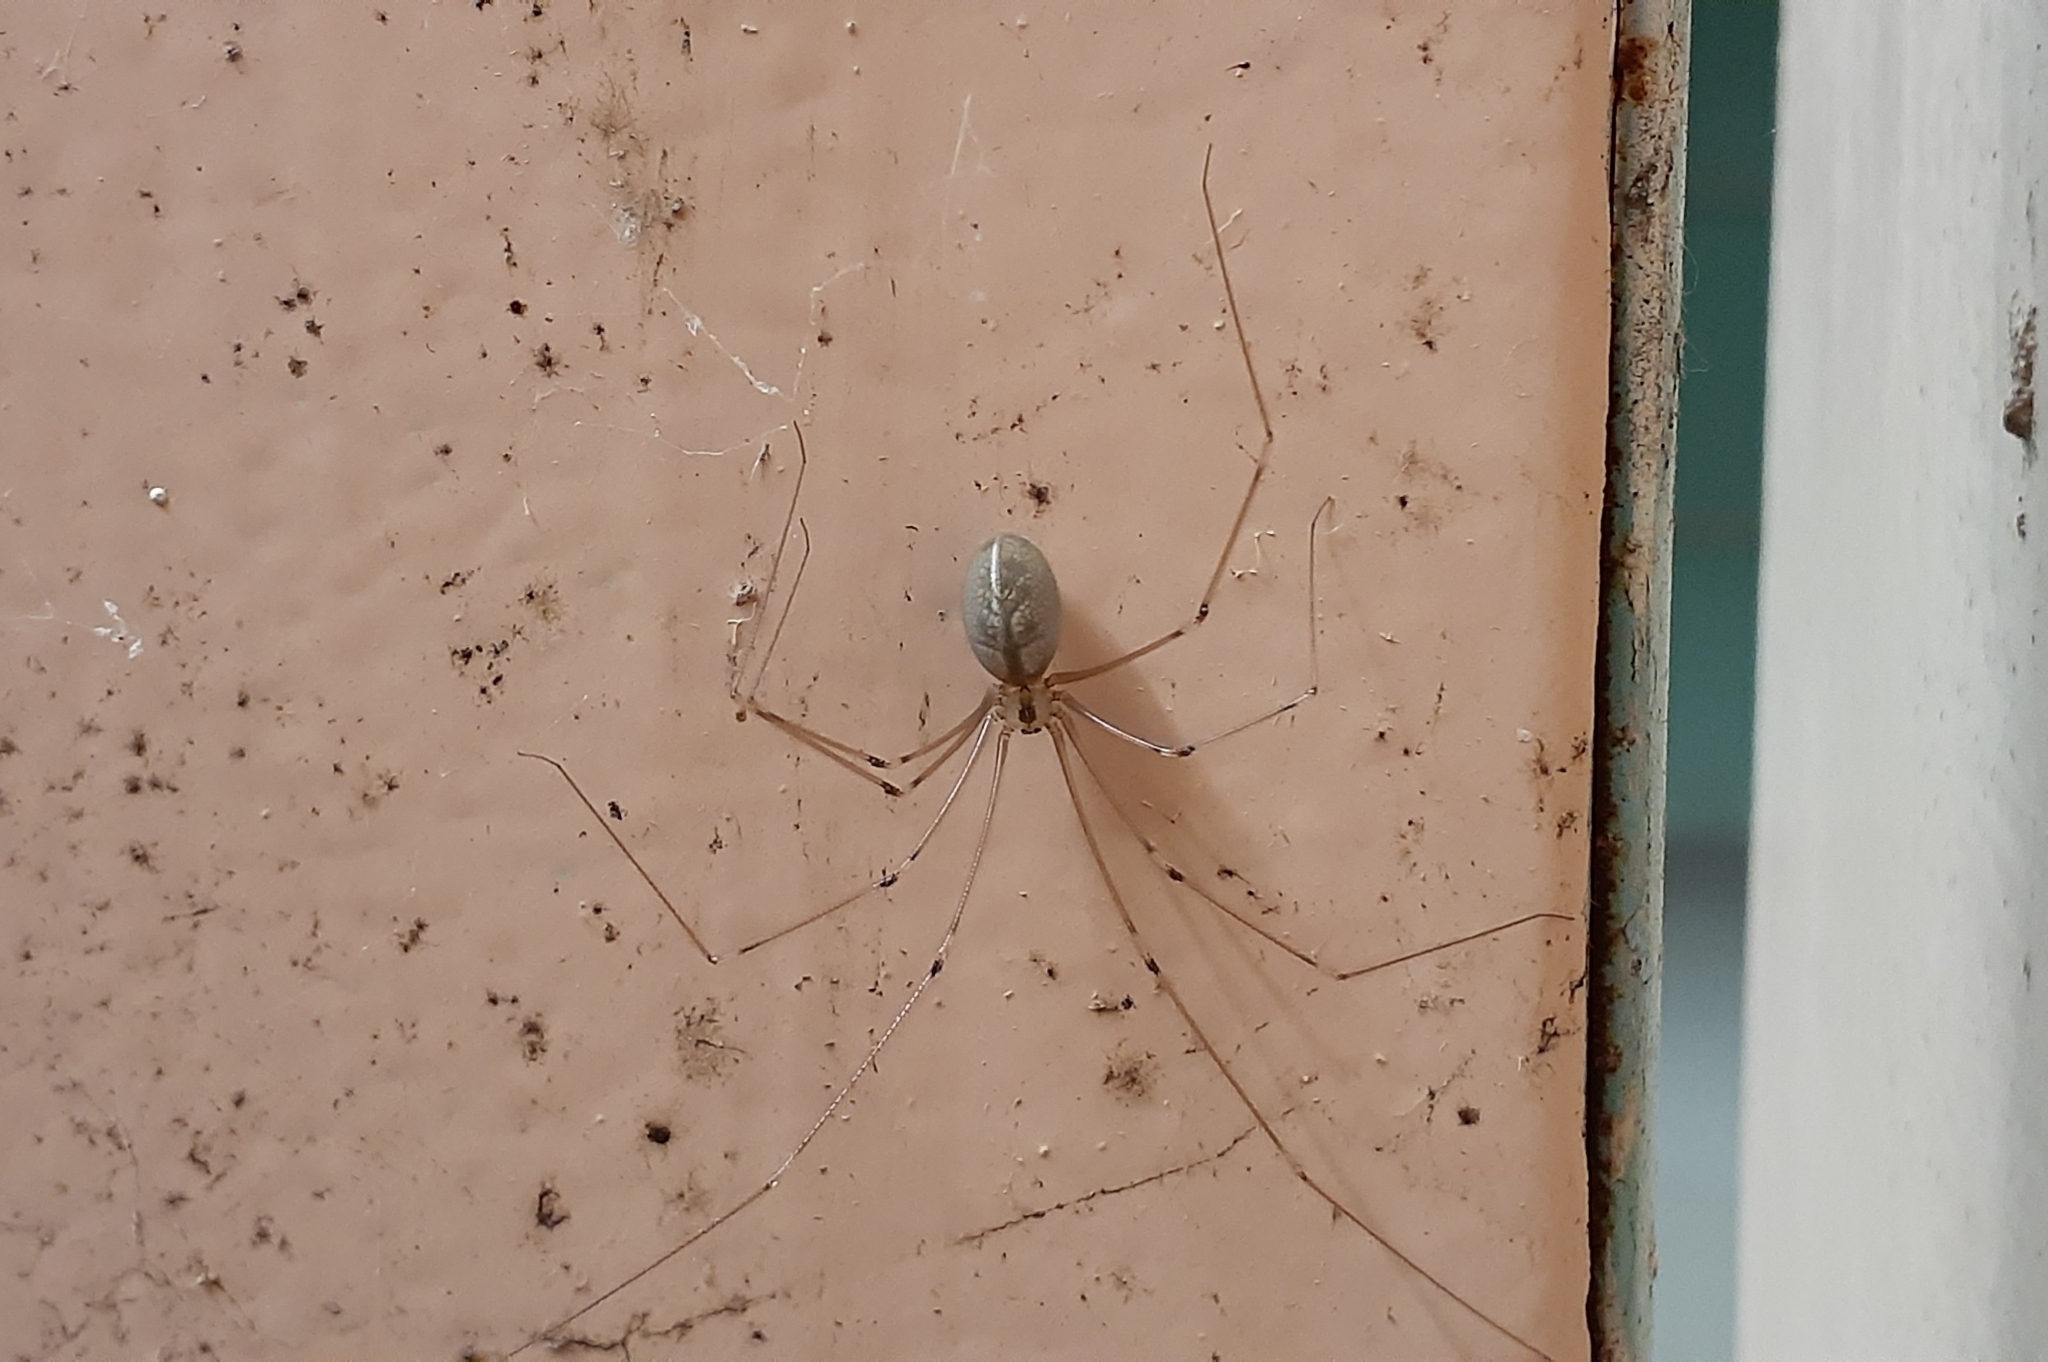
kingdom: Animalia
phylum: Arthropoda
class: Arachnida
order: Araneae
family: Pholcidae
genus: Pholcus
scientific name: Pholcus phalangioides
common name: Longbodied cellar spider
